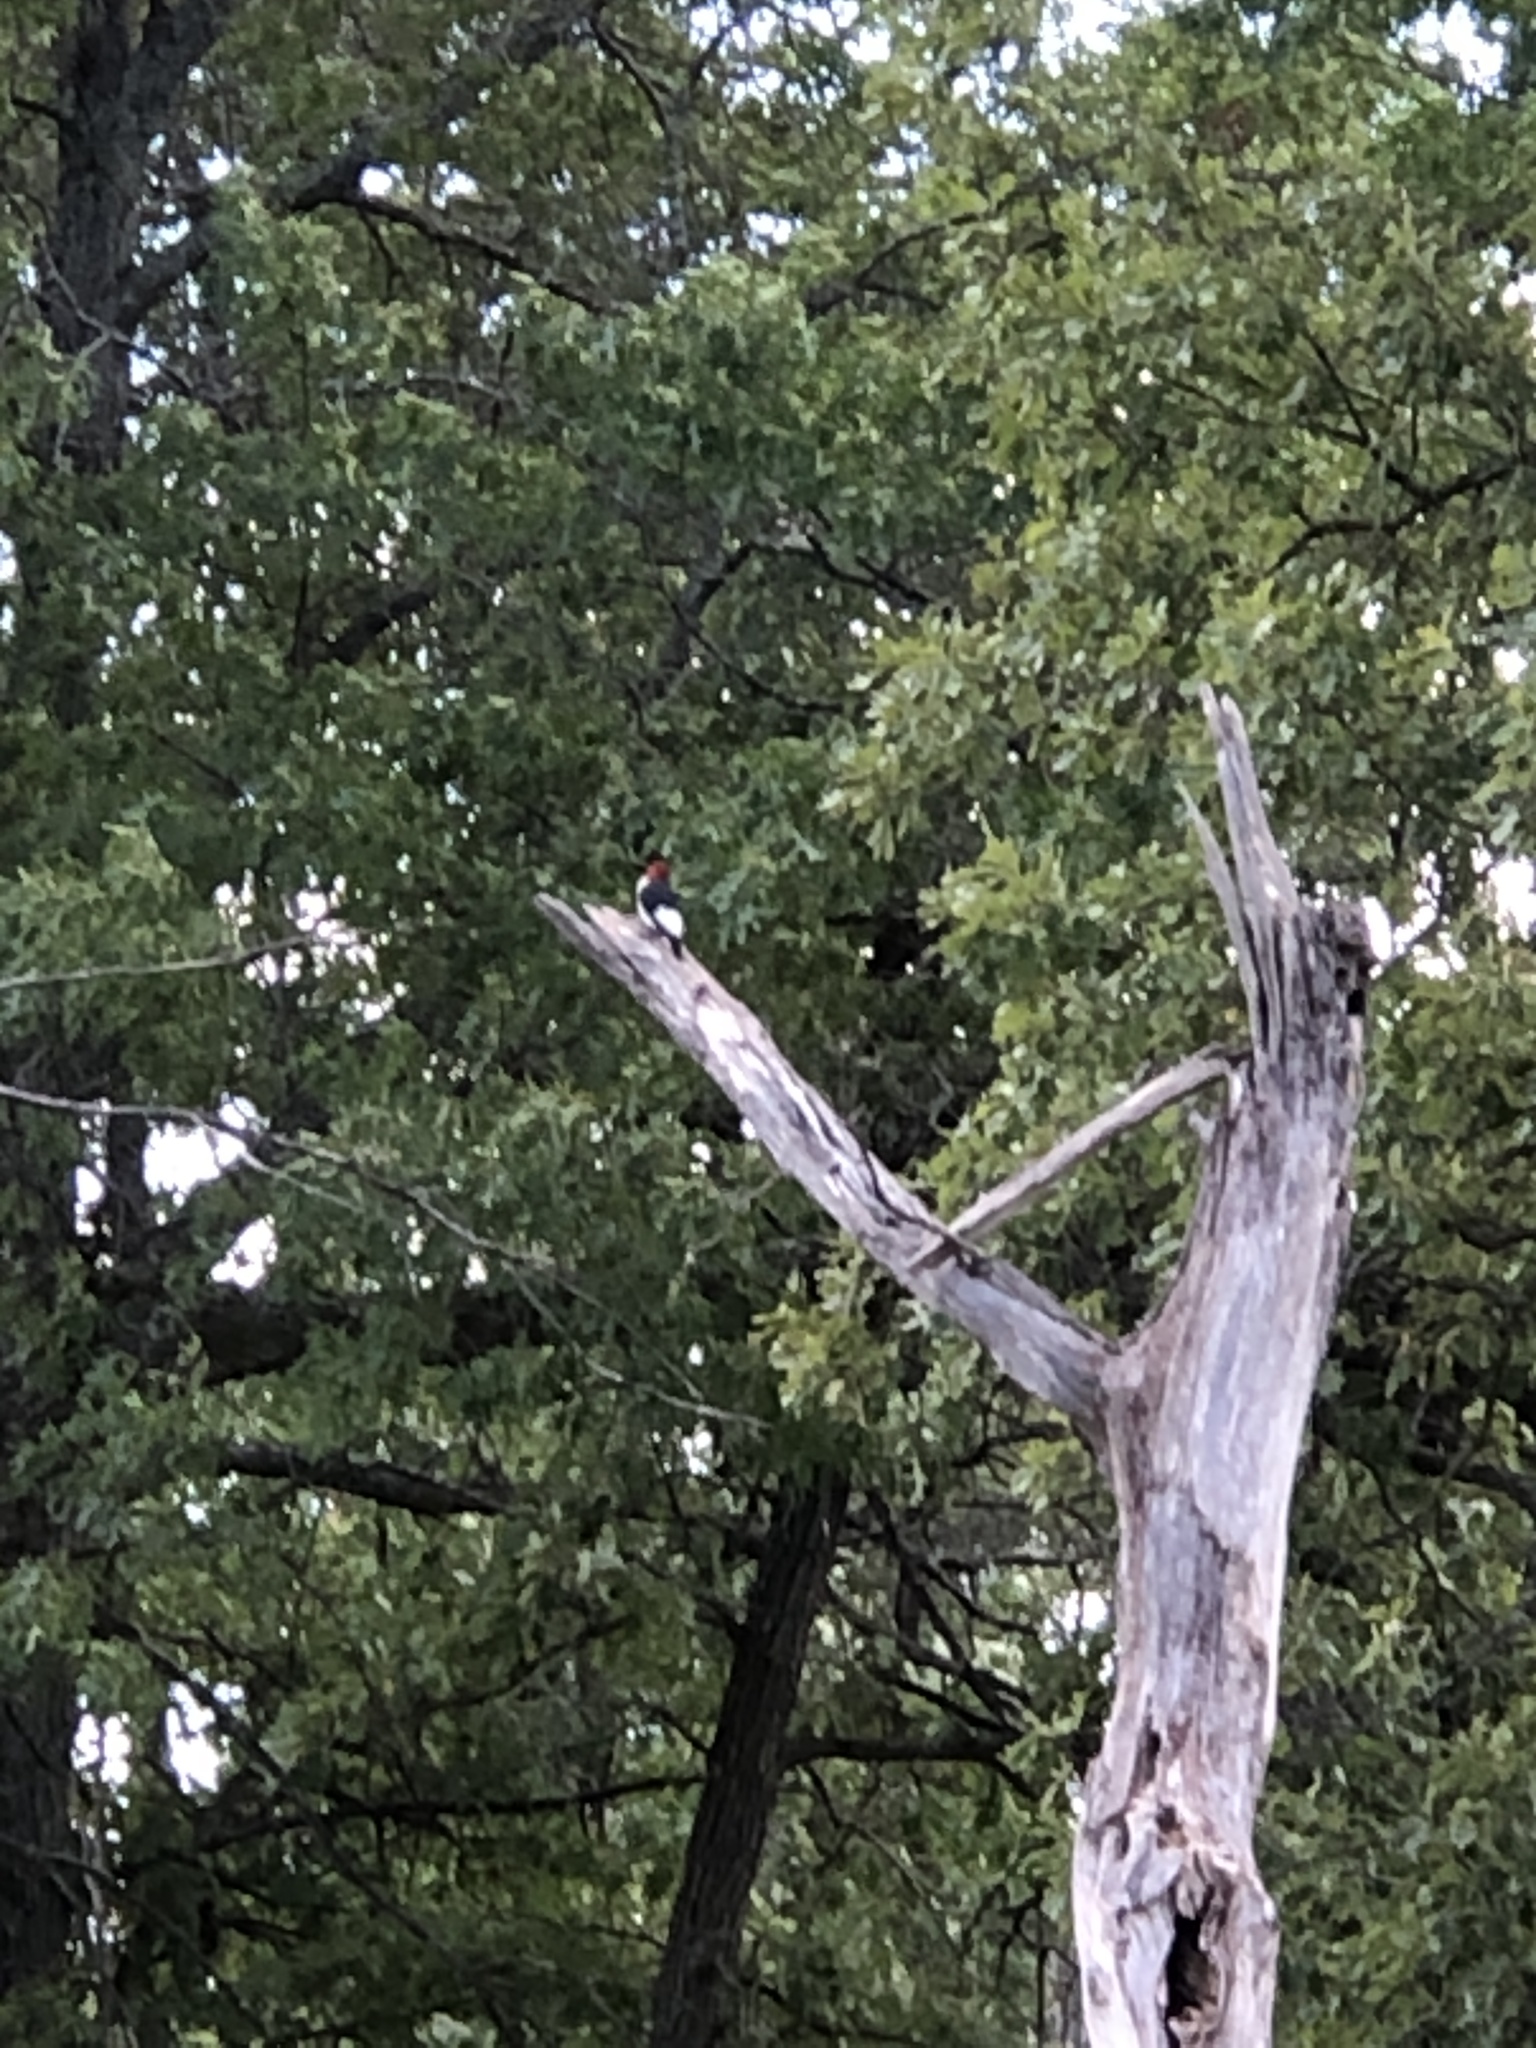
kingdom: Animalia
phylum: Chordata
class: Aves
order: Piciformes
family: Picidae
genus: Melanerpes
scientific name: Melanerpes erythrocephalus
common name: Red-headed woodpecker
